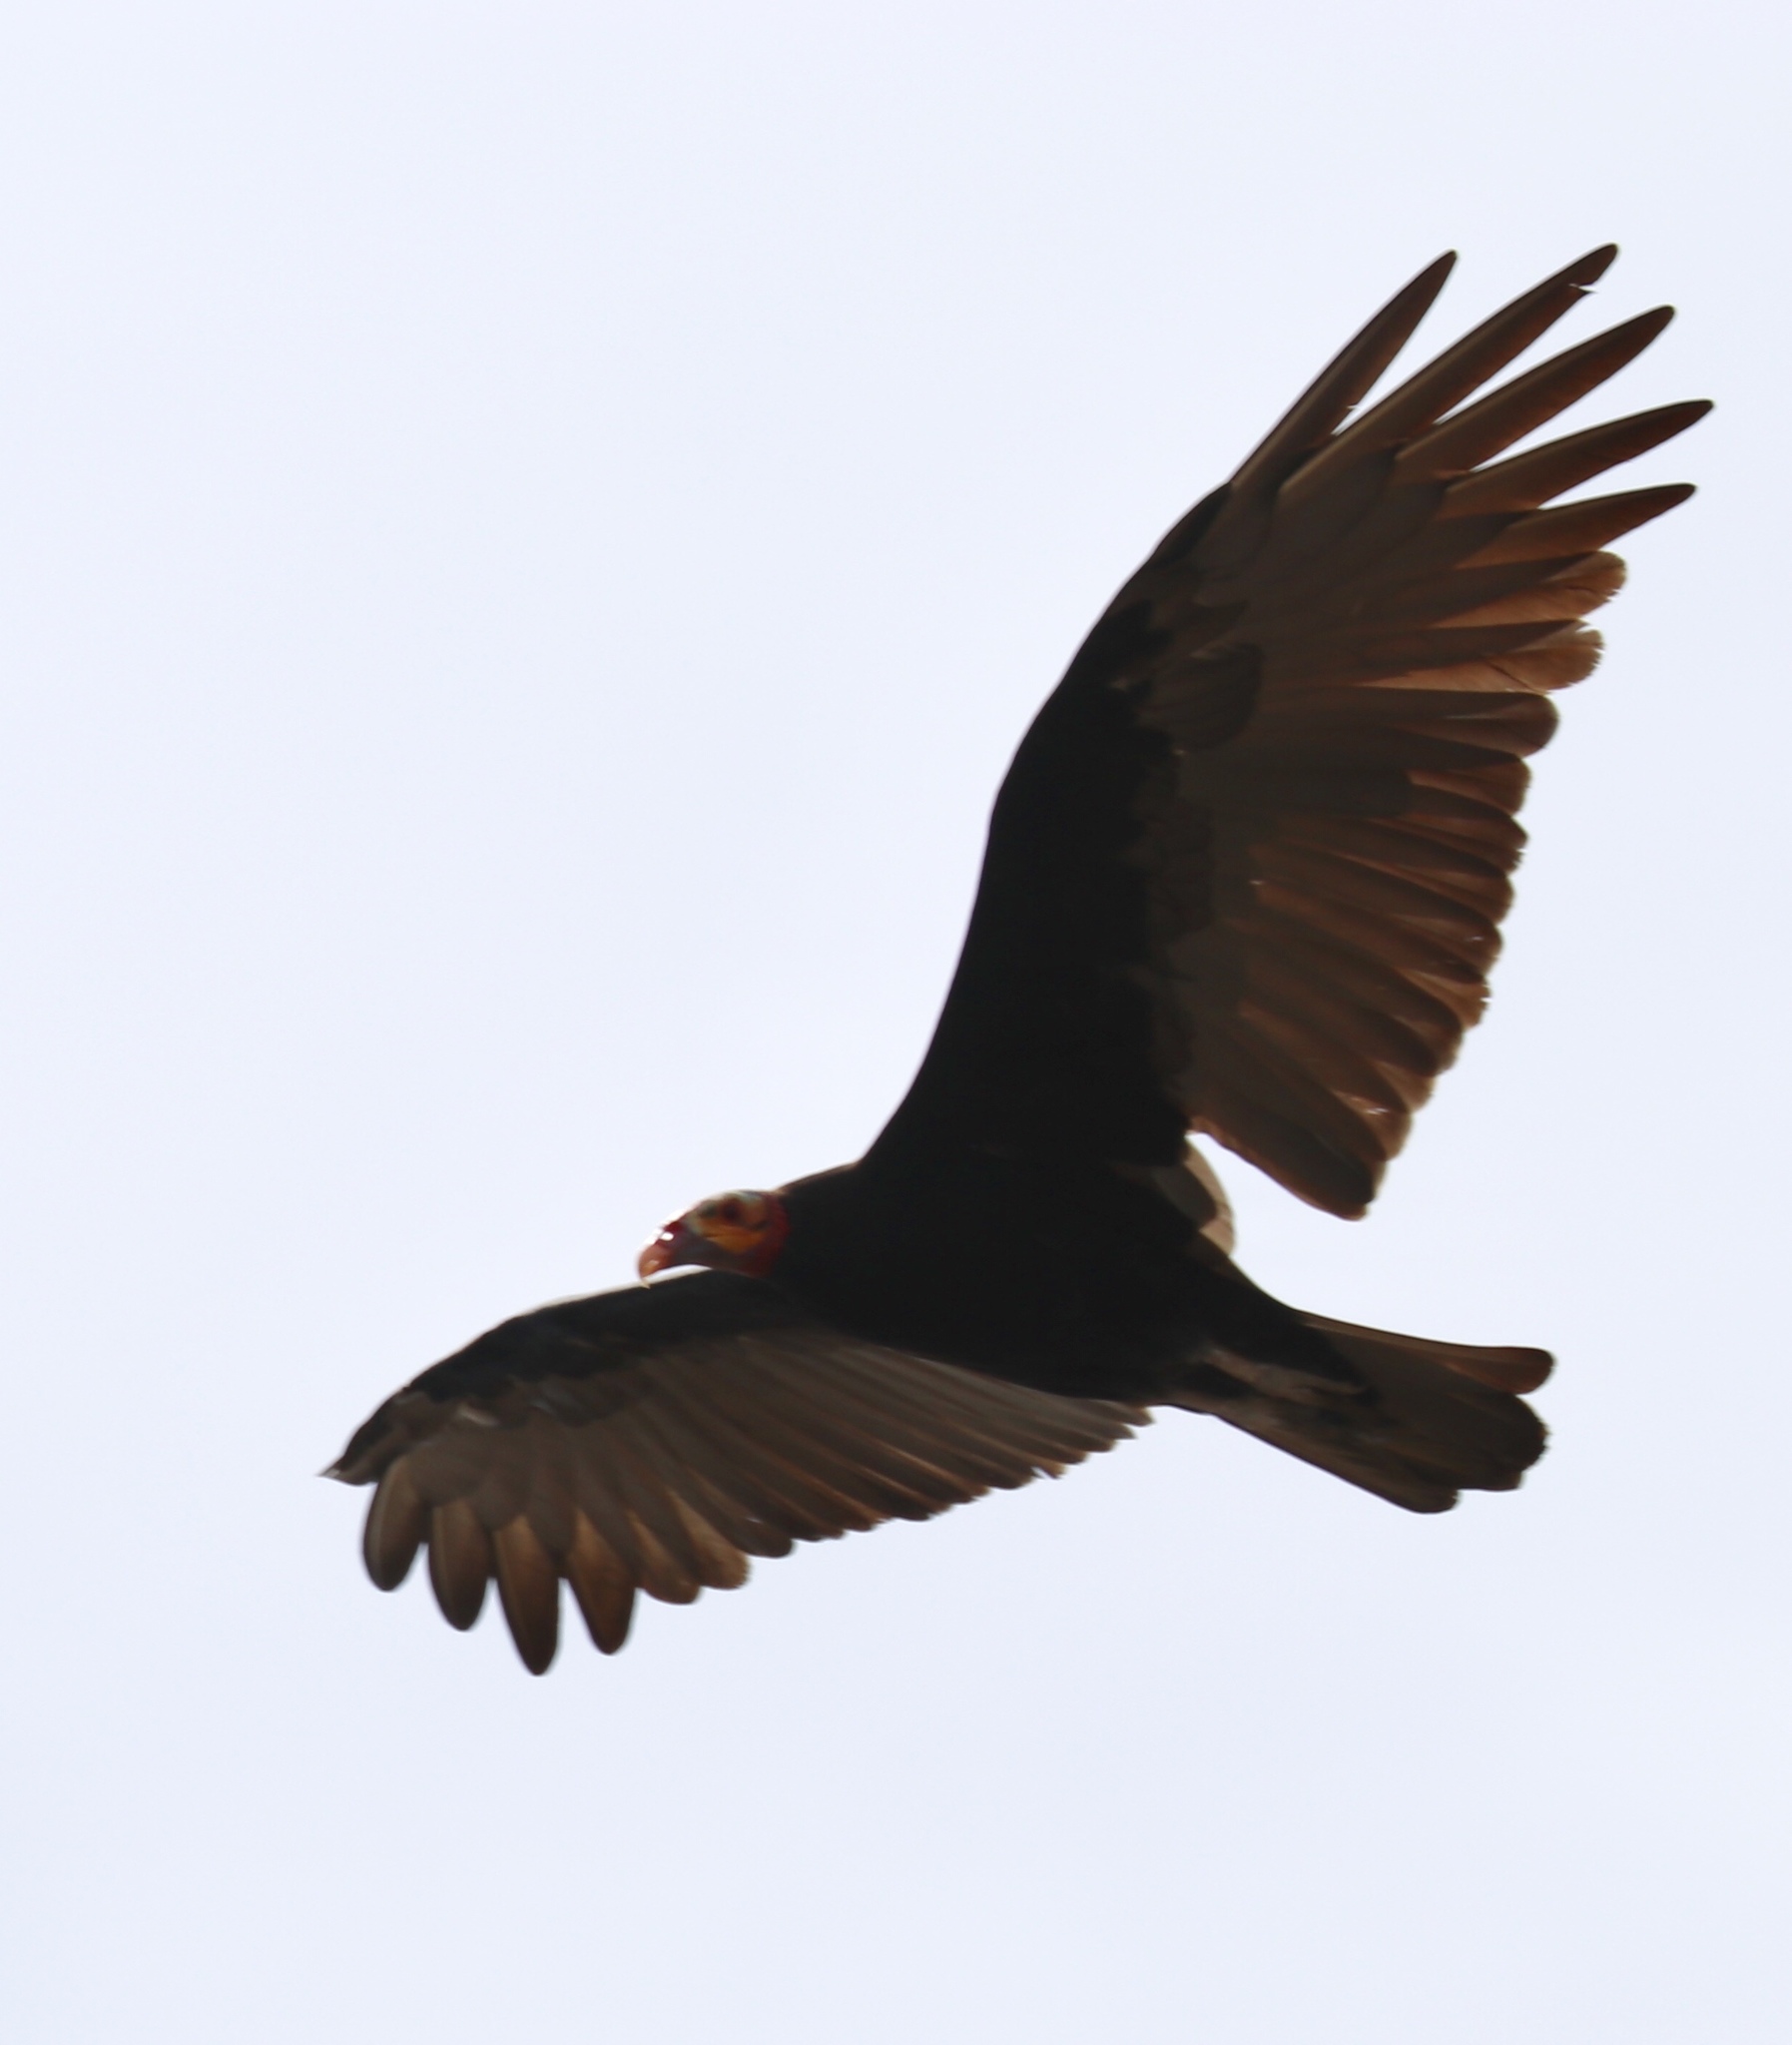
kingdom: Animalia
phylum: Chordata
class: Aves
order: Accipitriformes
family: Cathartidae
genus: Cathartes
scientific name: Cathartes burrovianus
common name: Lesser yellow-headed vulture
